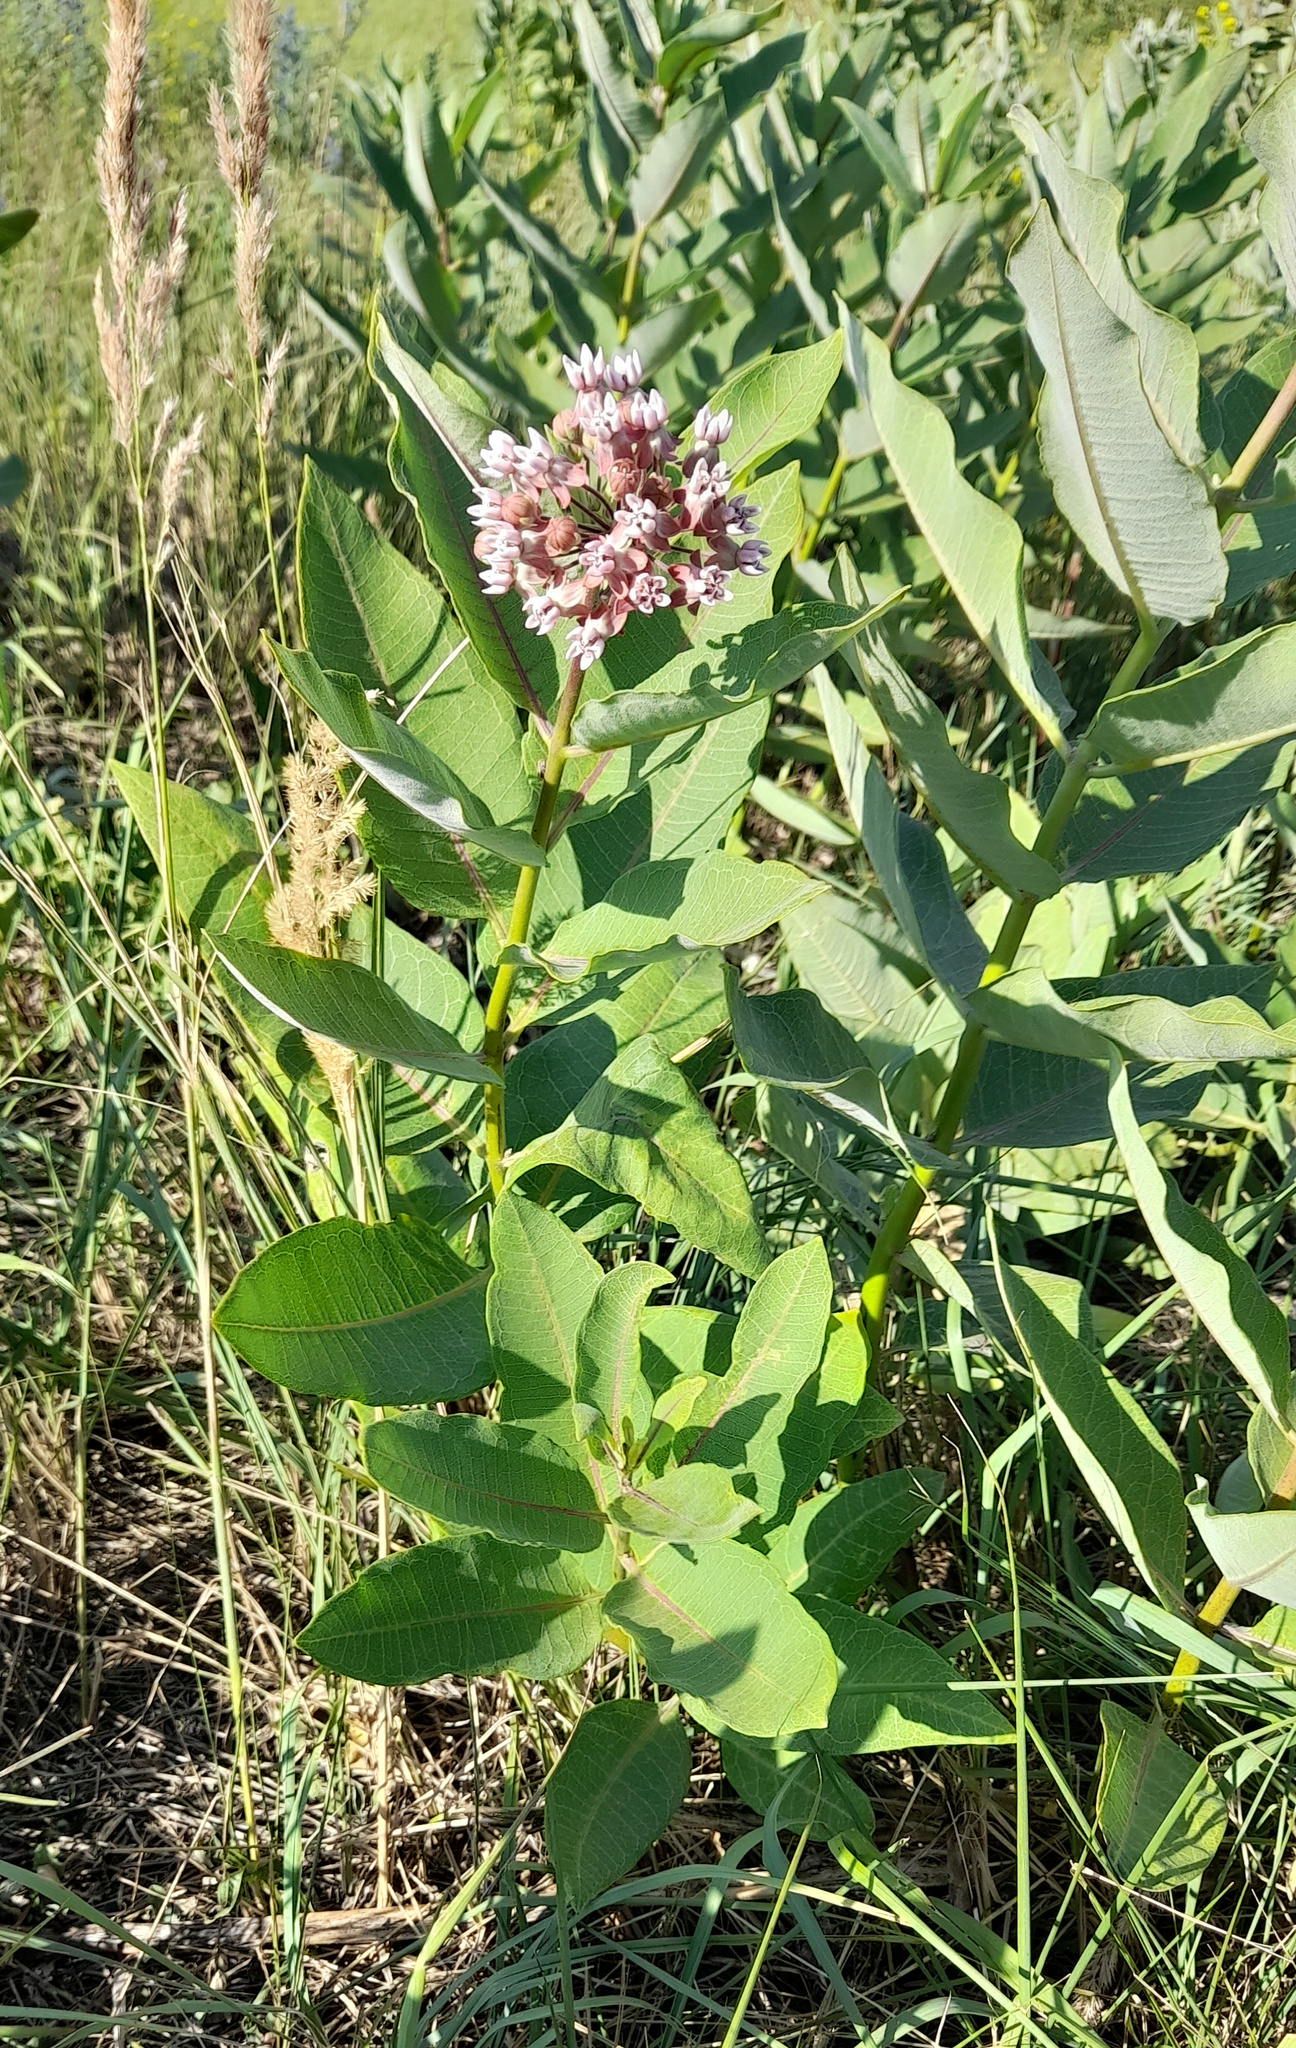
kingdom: Plantae
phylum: Tracheophyta
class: Magnoliopsida
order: Gentianales
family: Apocynaceae
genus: Asclepias
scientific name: Asclepias syriaca
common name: Common milkweed
